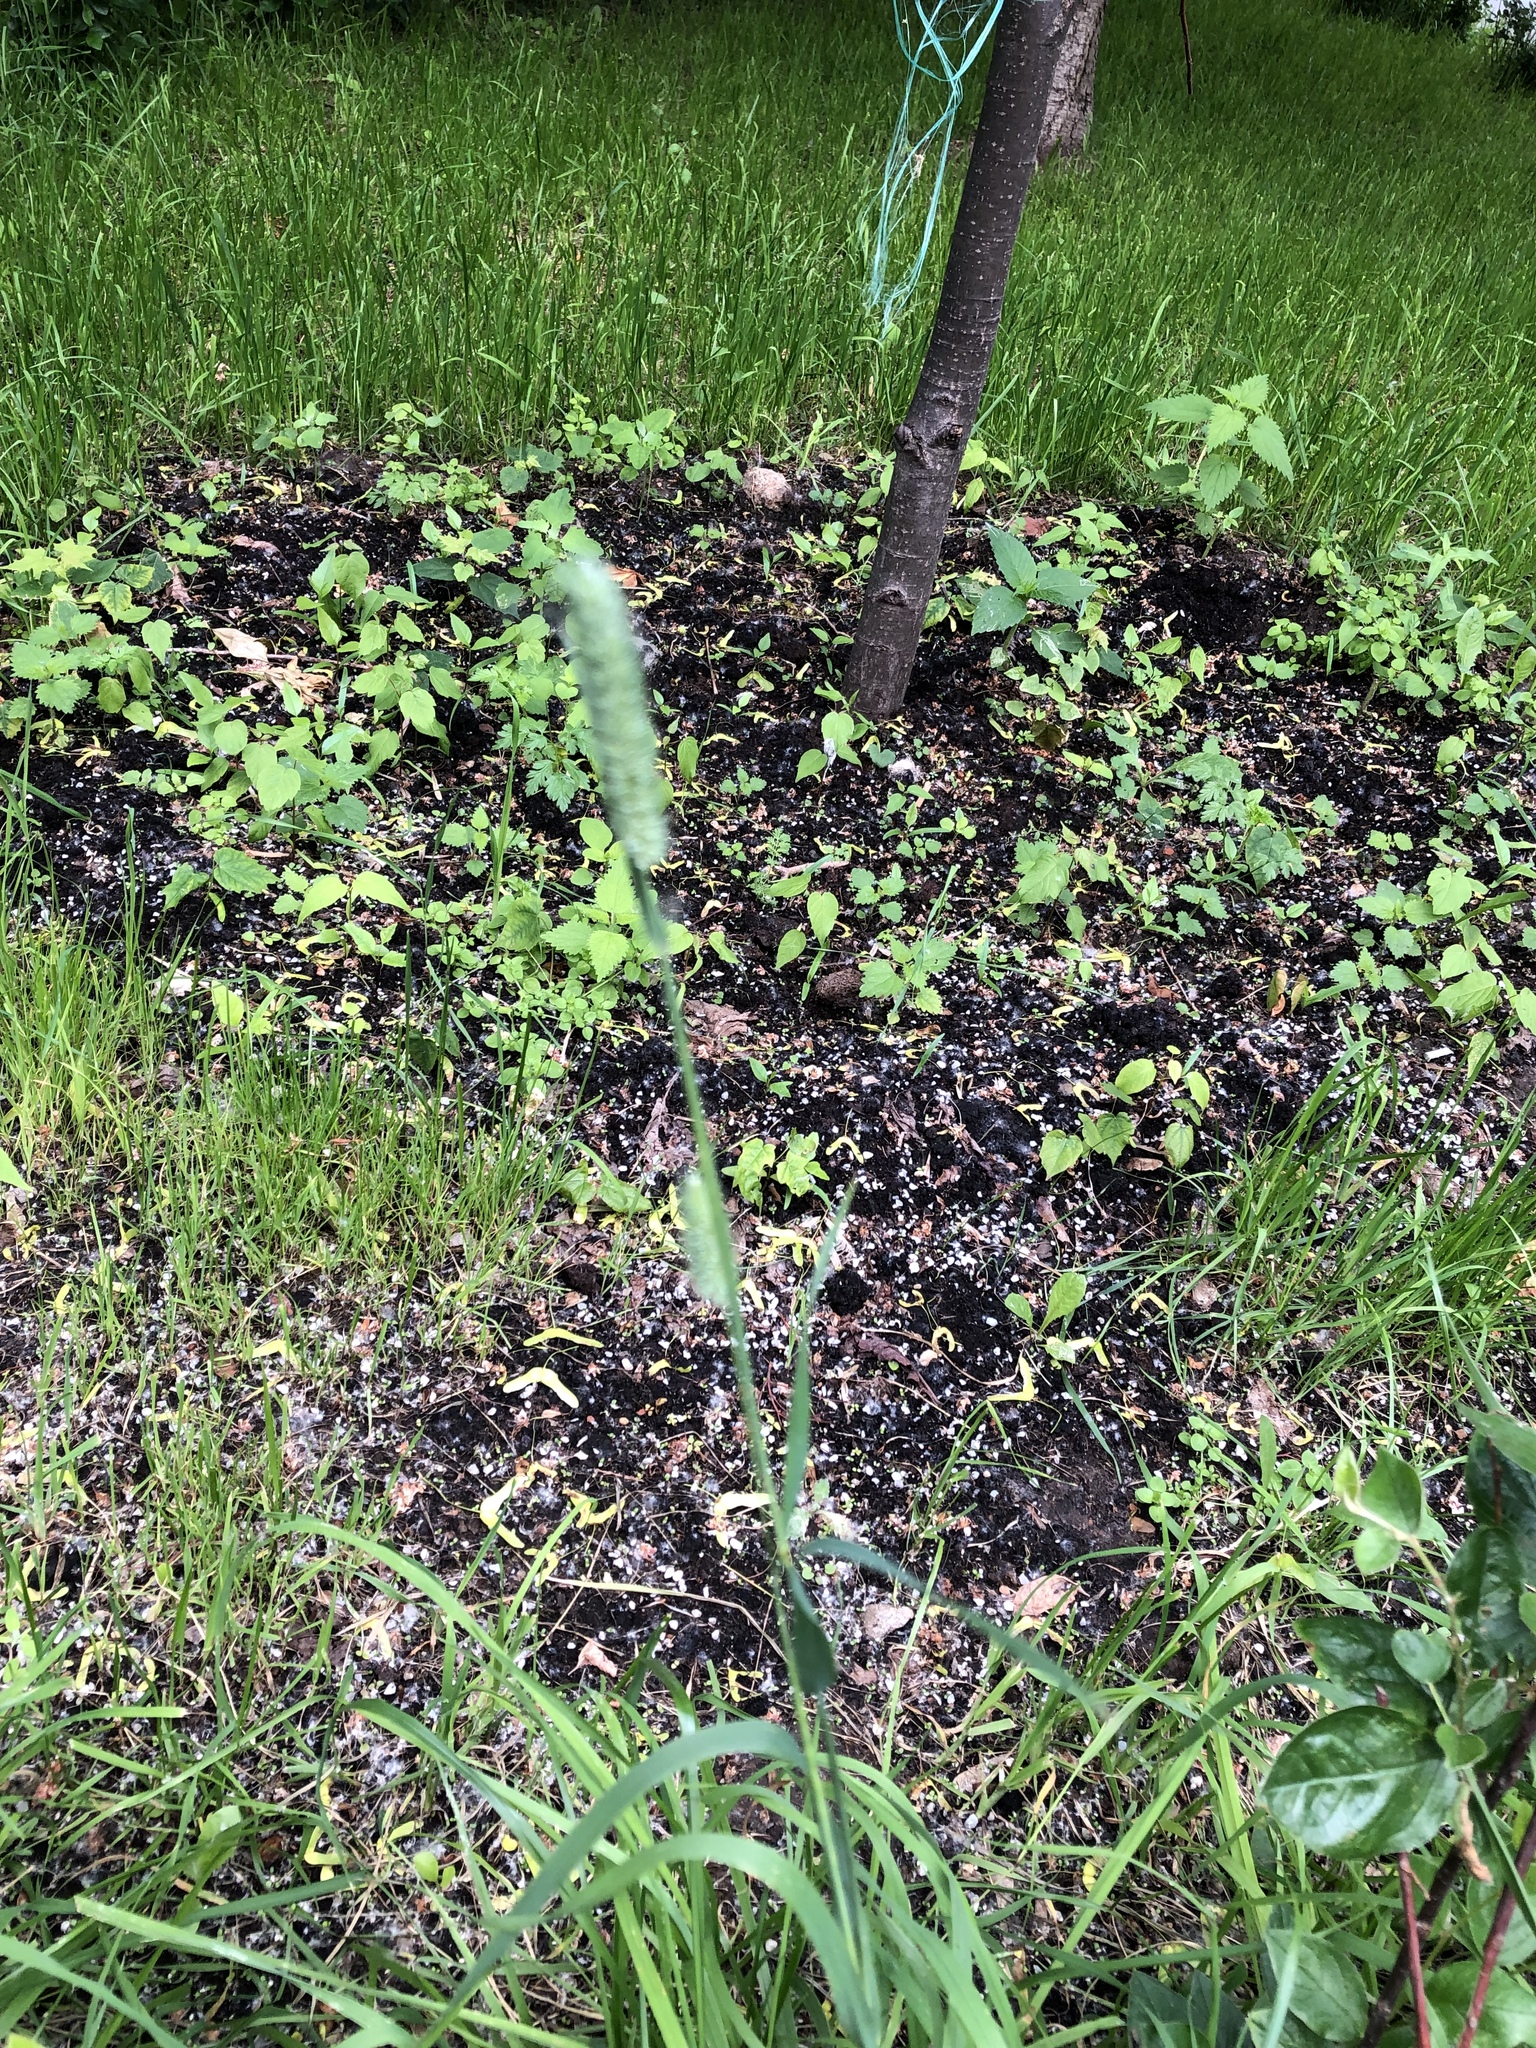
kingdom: Plantae
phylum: Tracheophyta
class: Liliopsida
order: Poales
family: Poaceae
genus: Phleum
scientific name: Phleum pratense
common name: Timothy grass
